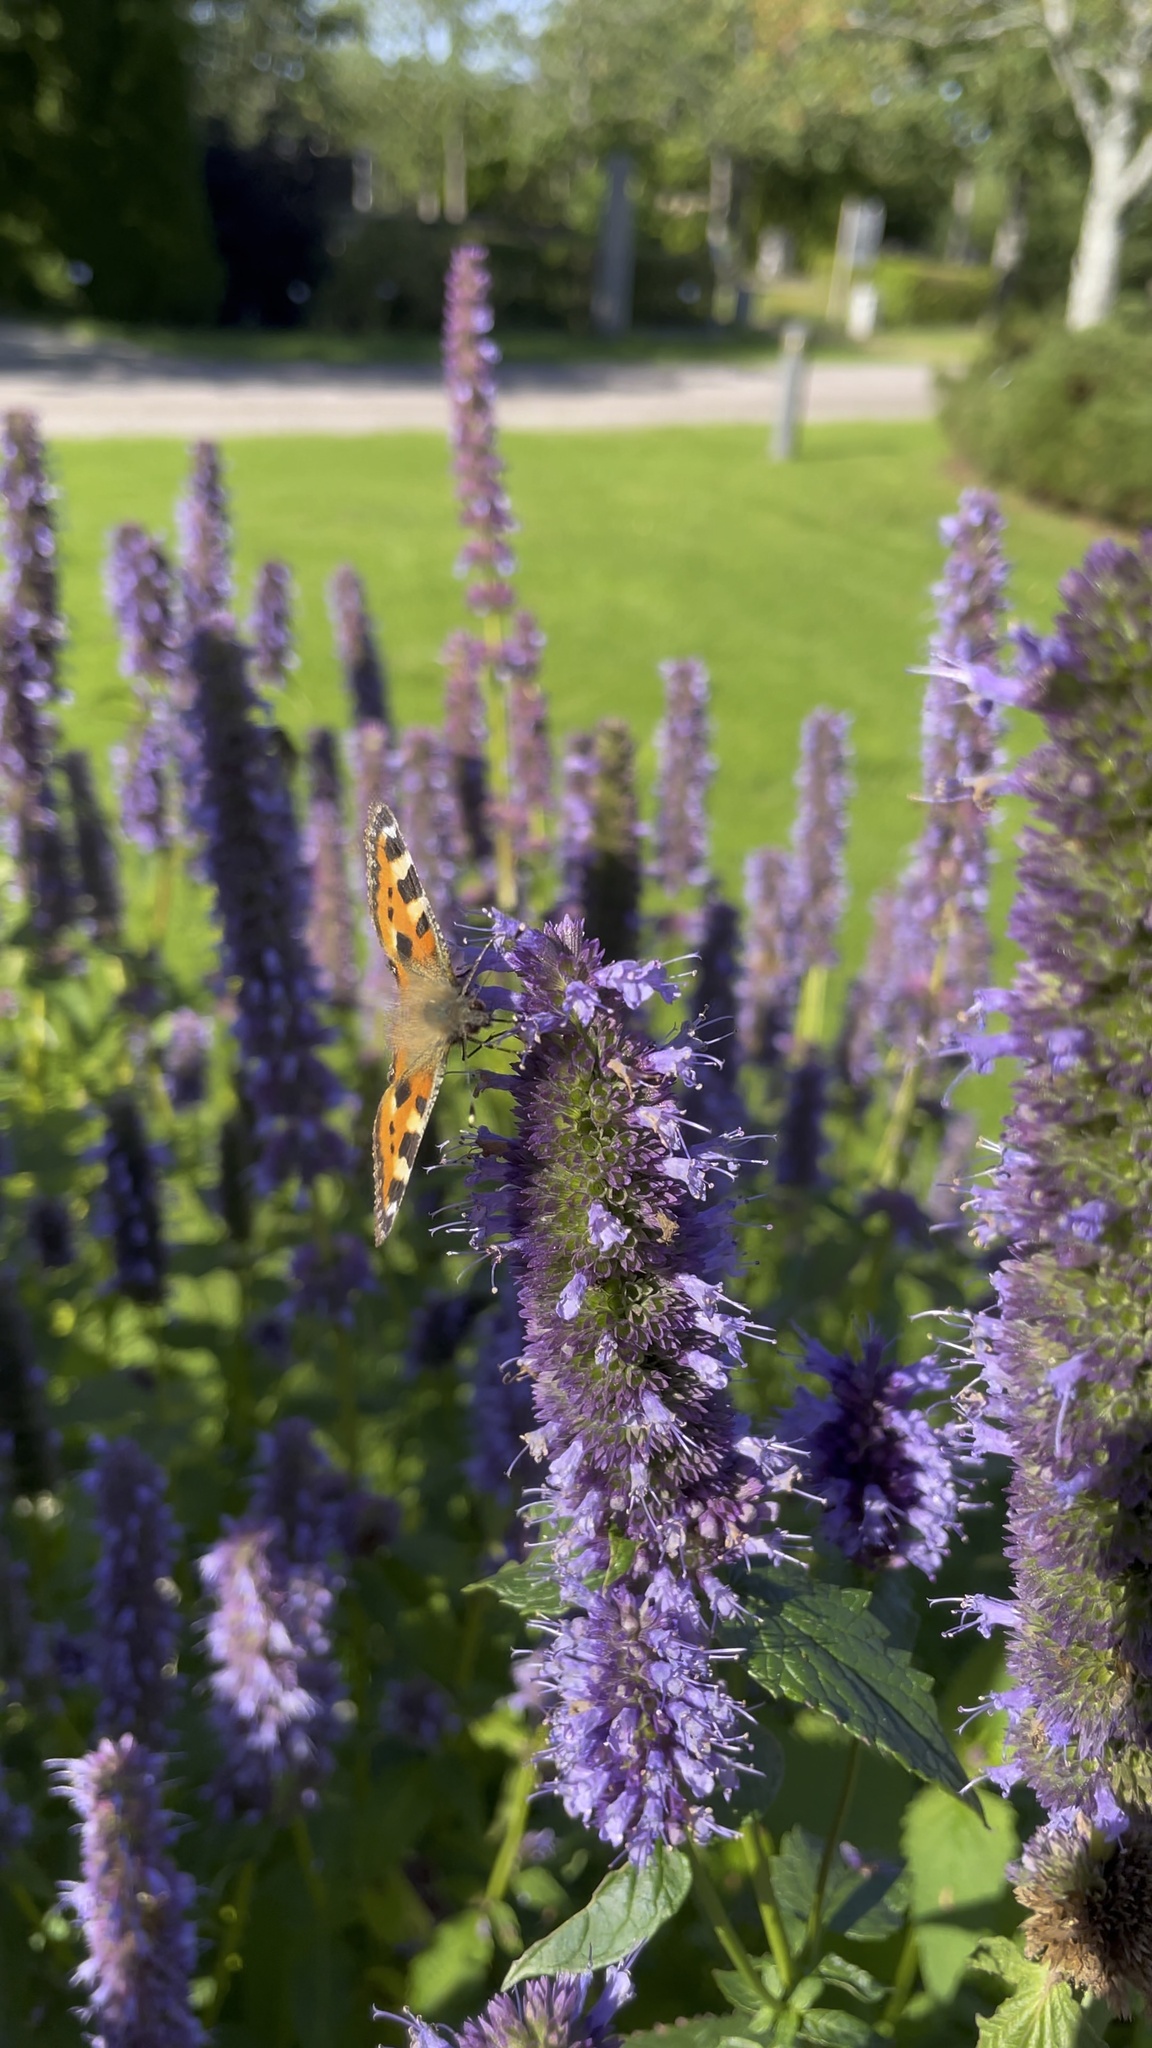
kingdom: Animalia
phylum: Arthropoda
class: Insecta
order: Lepidoptera
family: Nymphalidae
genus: Aglais
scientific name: Aglais urticae
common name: Small tortoiseshell
